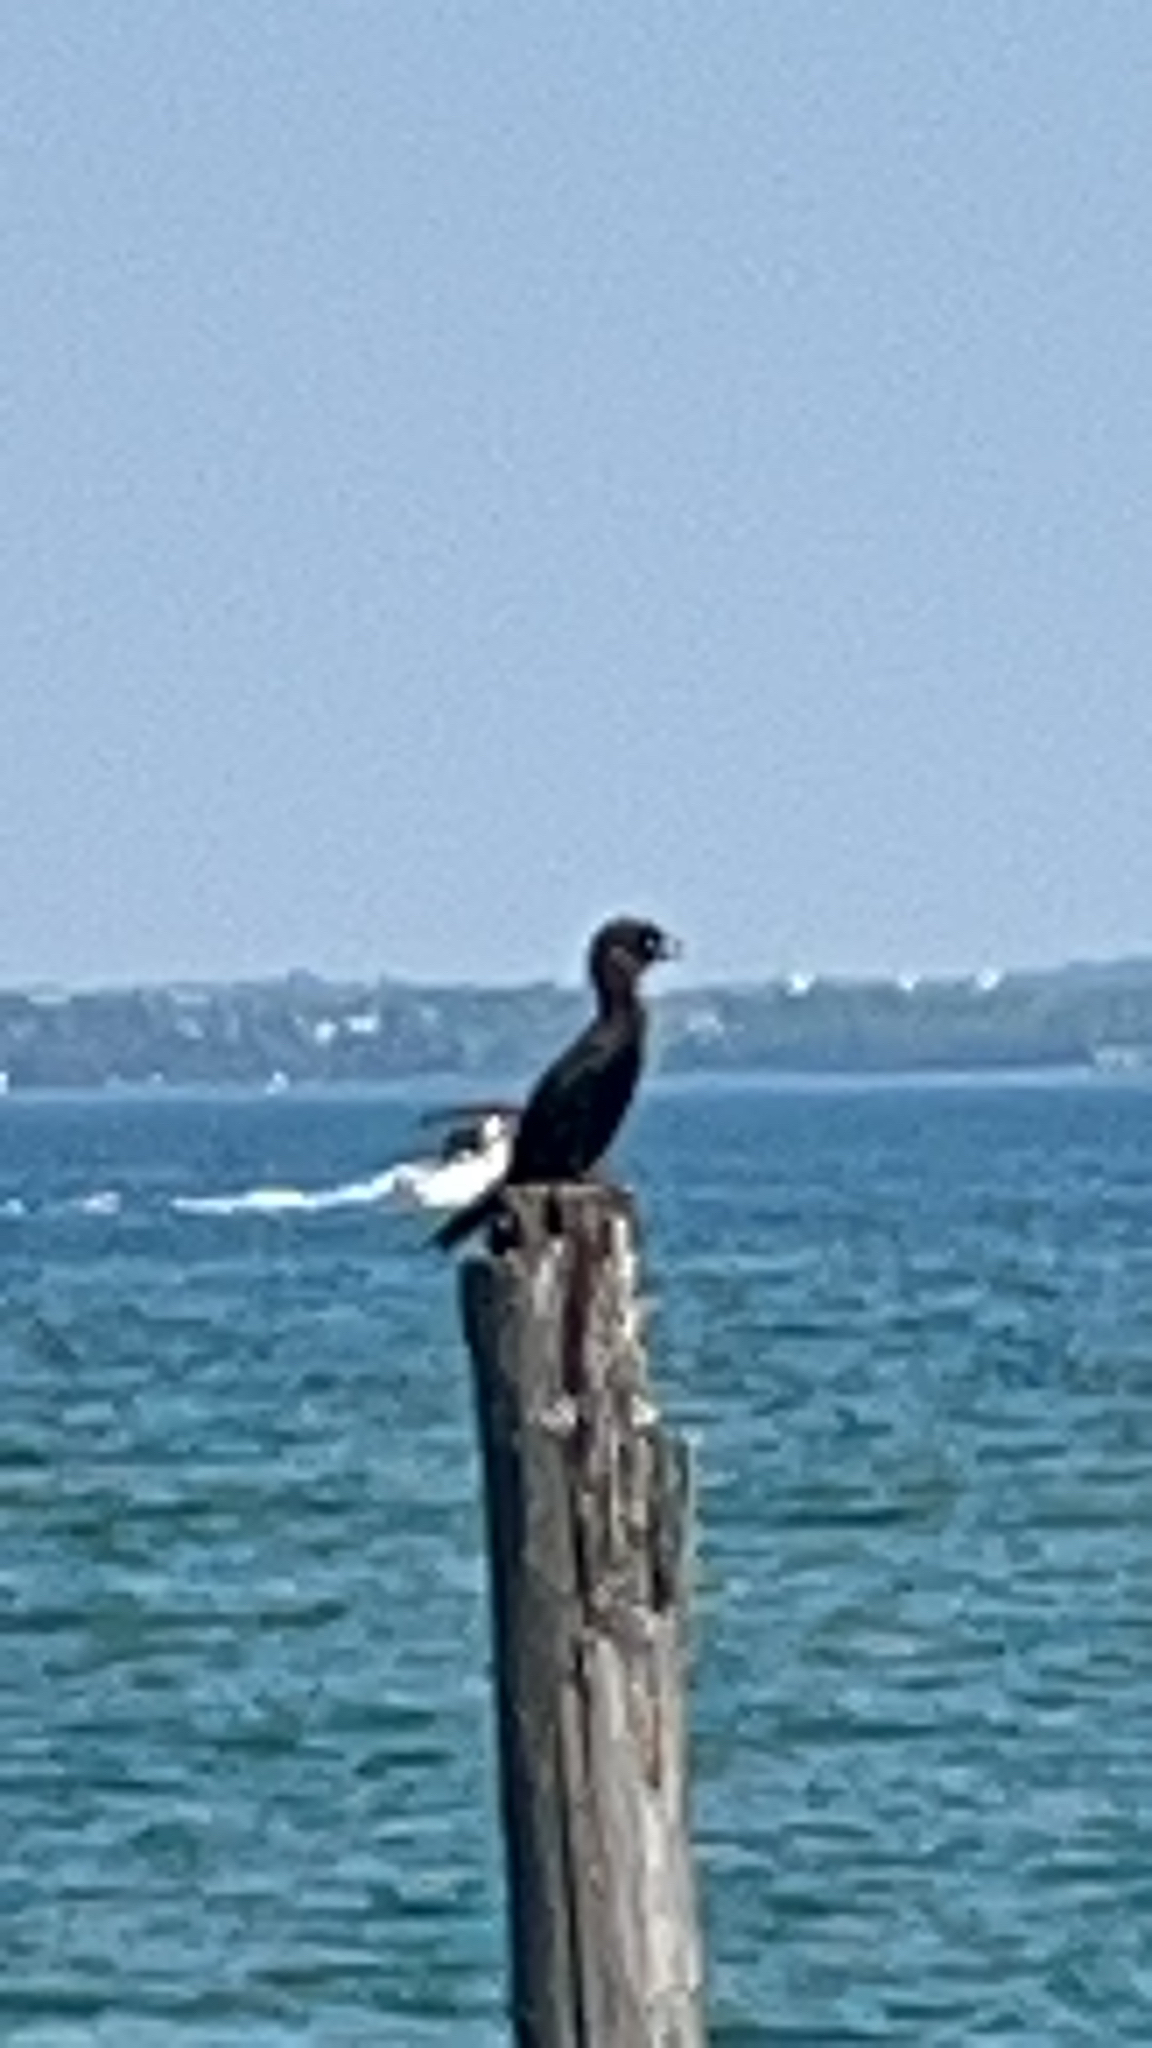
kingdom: Animalia
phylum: Chordata
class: Aves
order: Suliformes
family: Phalacrocoracidae
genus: Microcarbo
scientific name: Microcarbo pygmaeus
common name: Pygmy cormorant
